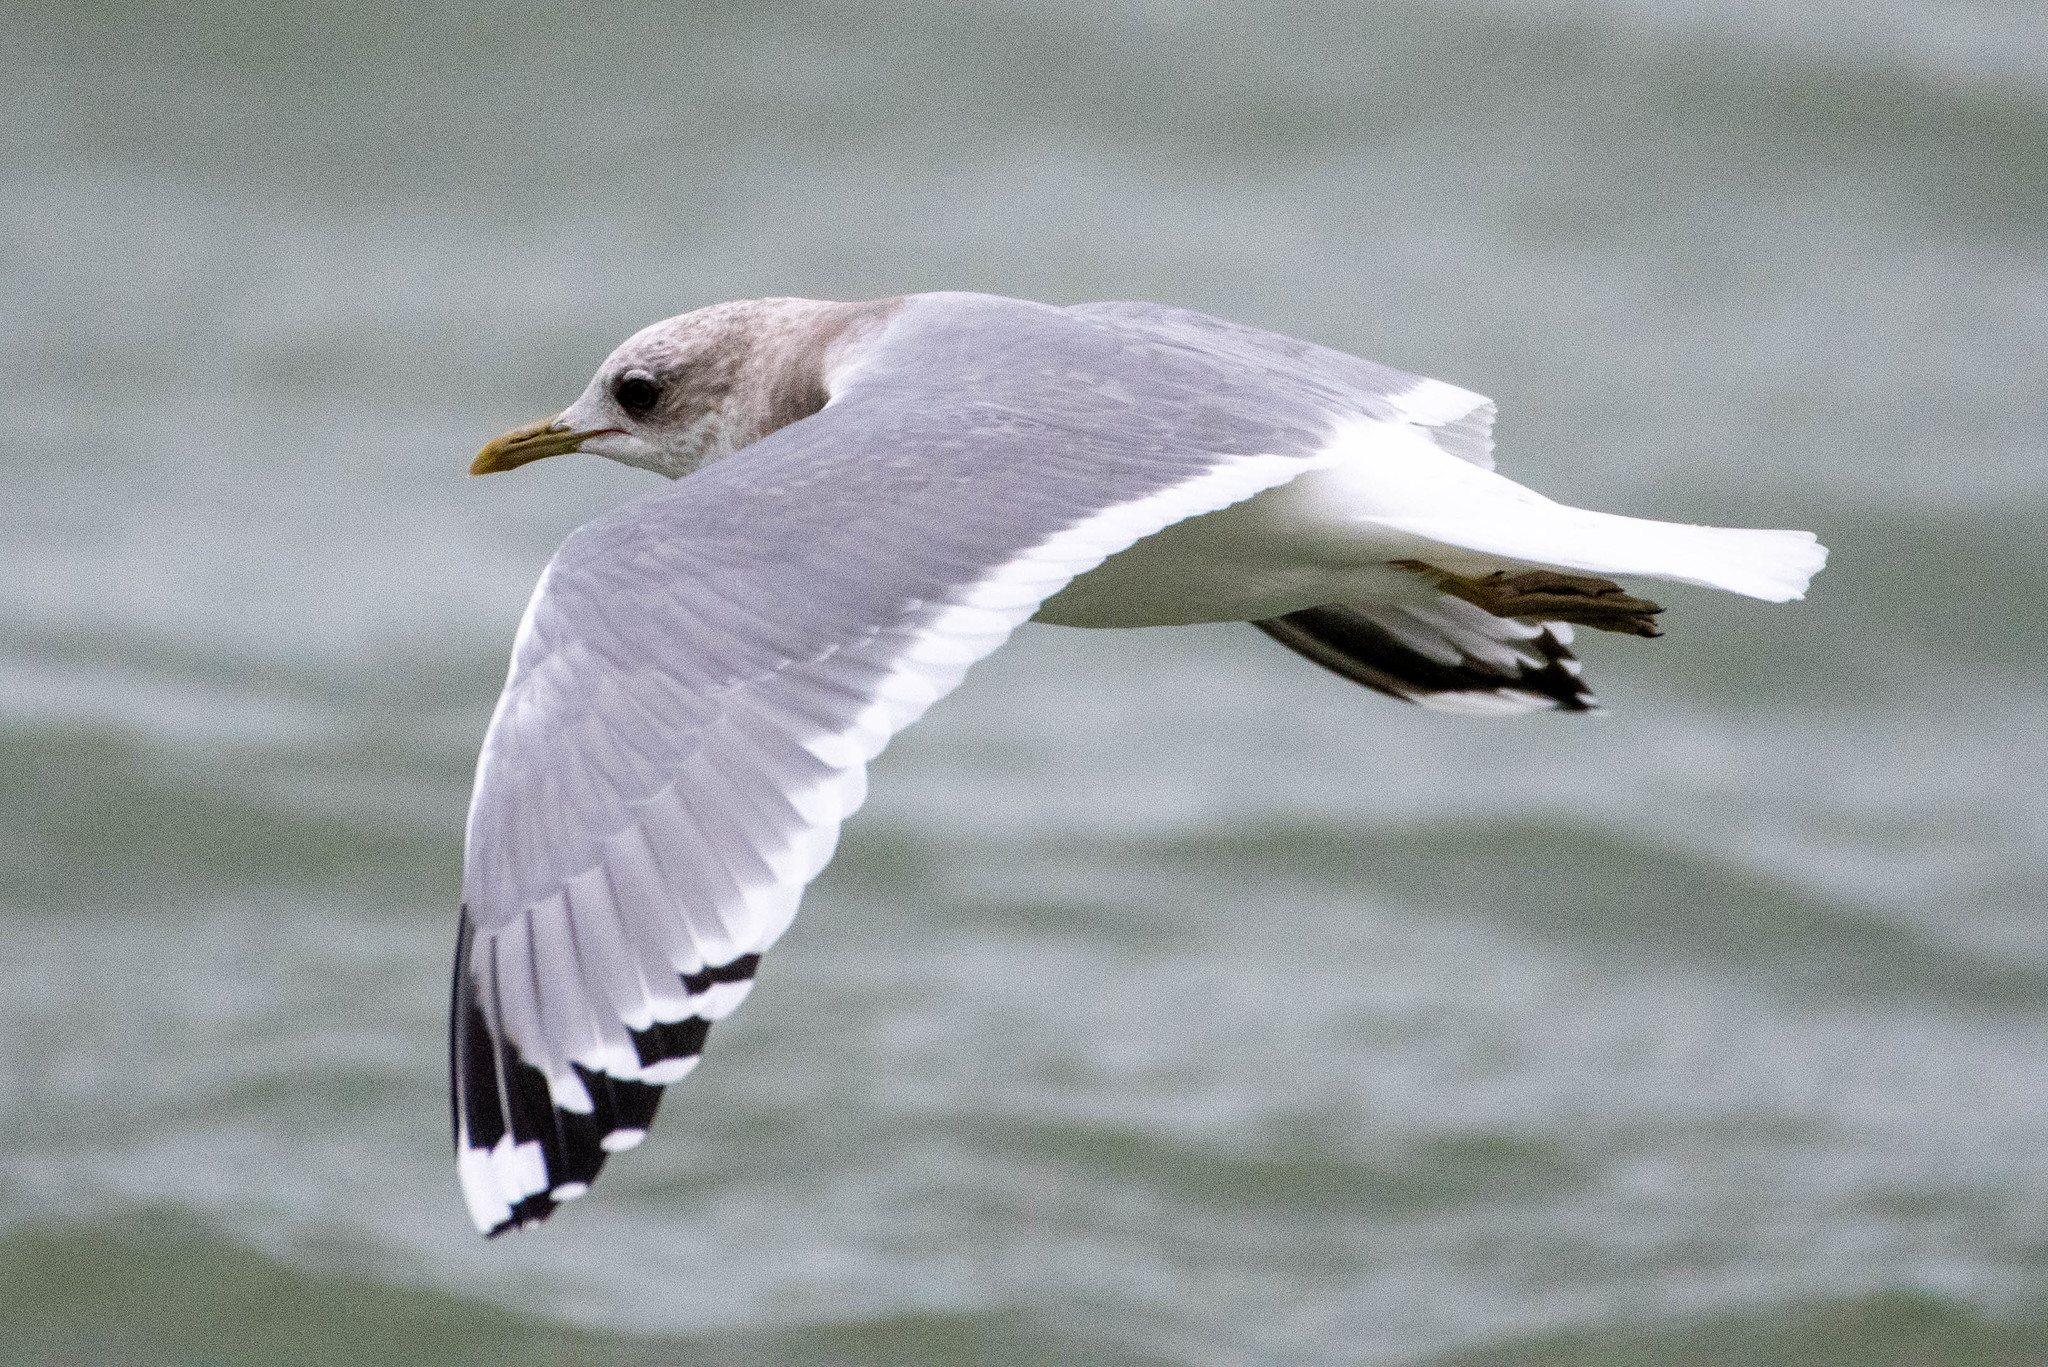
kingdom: Animalia
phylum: Chordata
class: Aves
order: Charadriiformes
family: Laridae
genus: Larus
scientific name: Larus brachyrhynchus
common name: Short-billed gull
